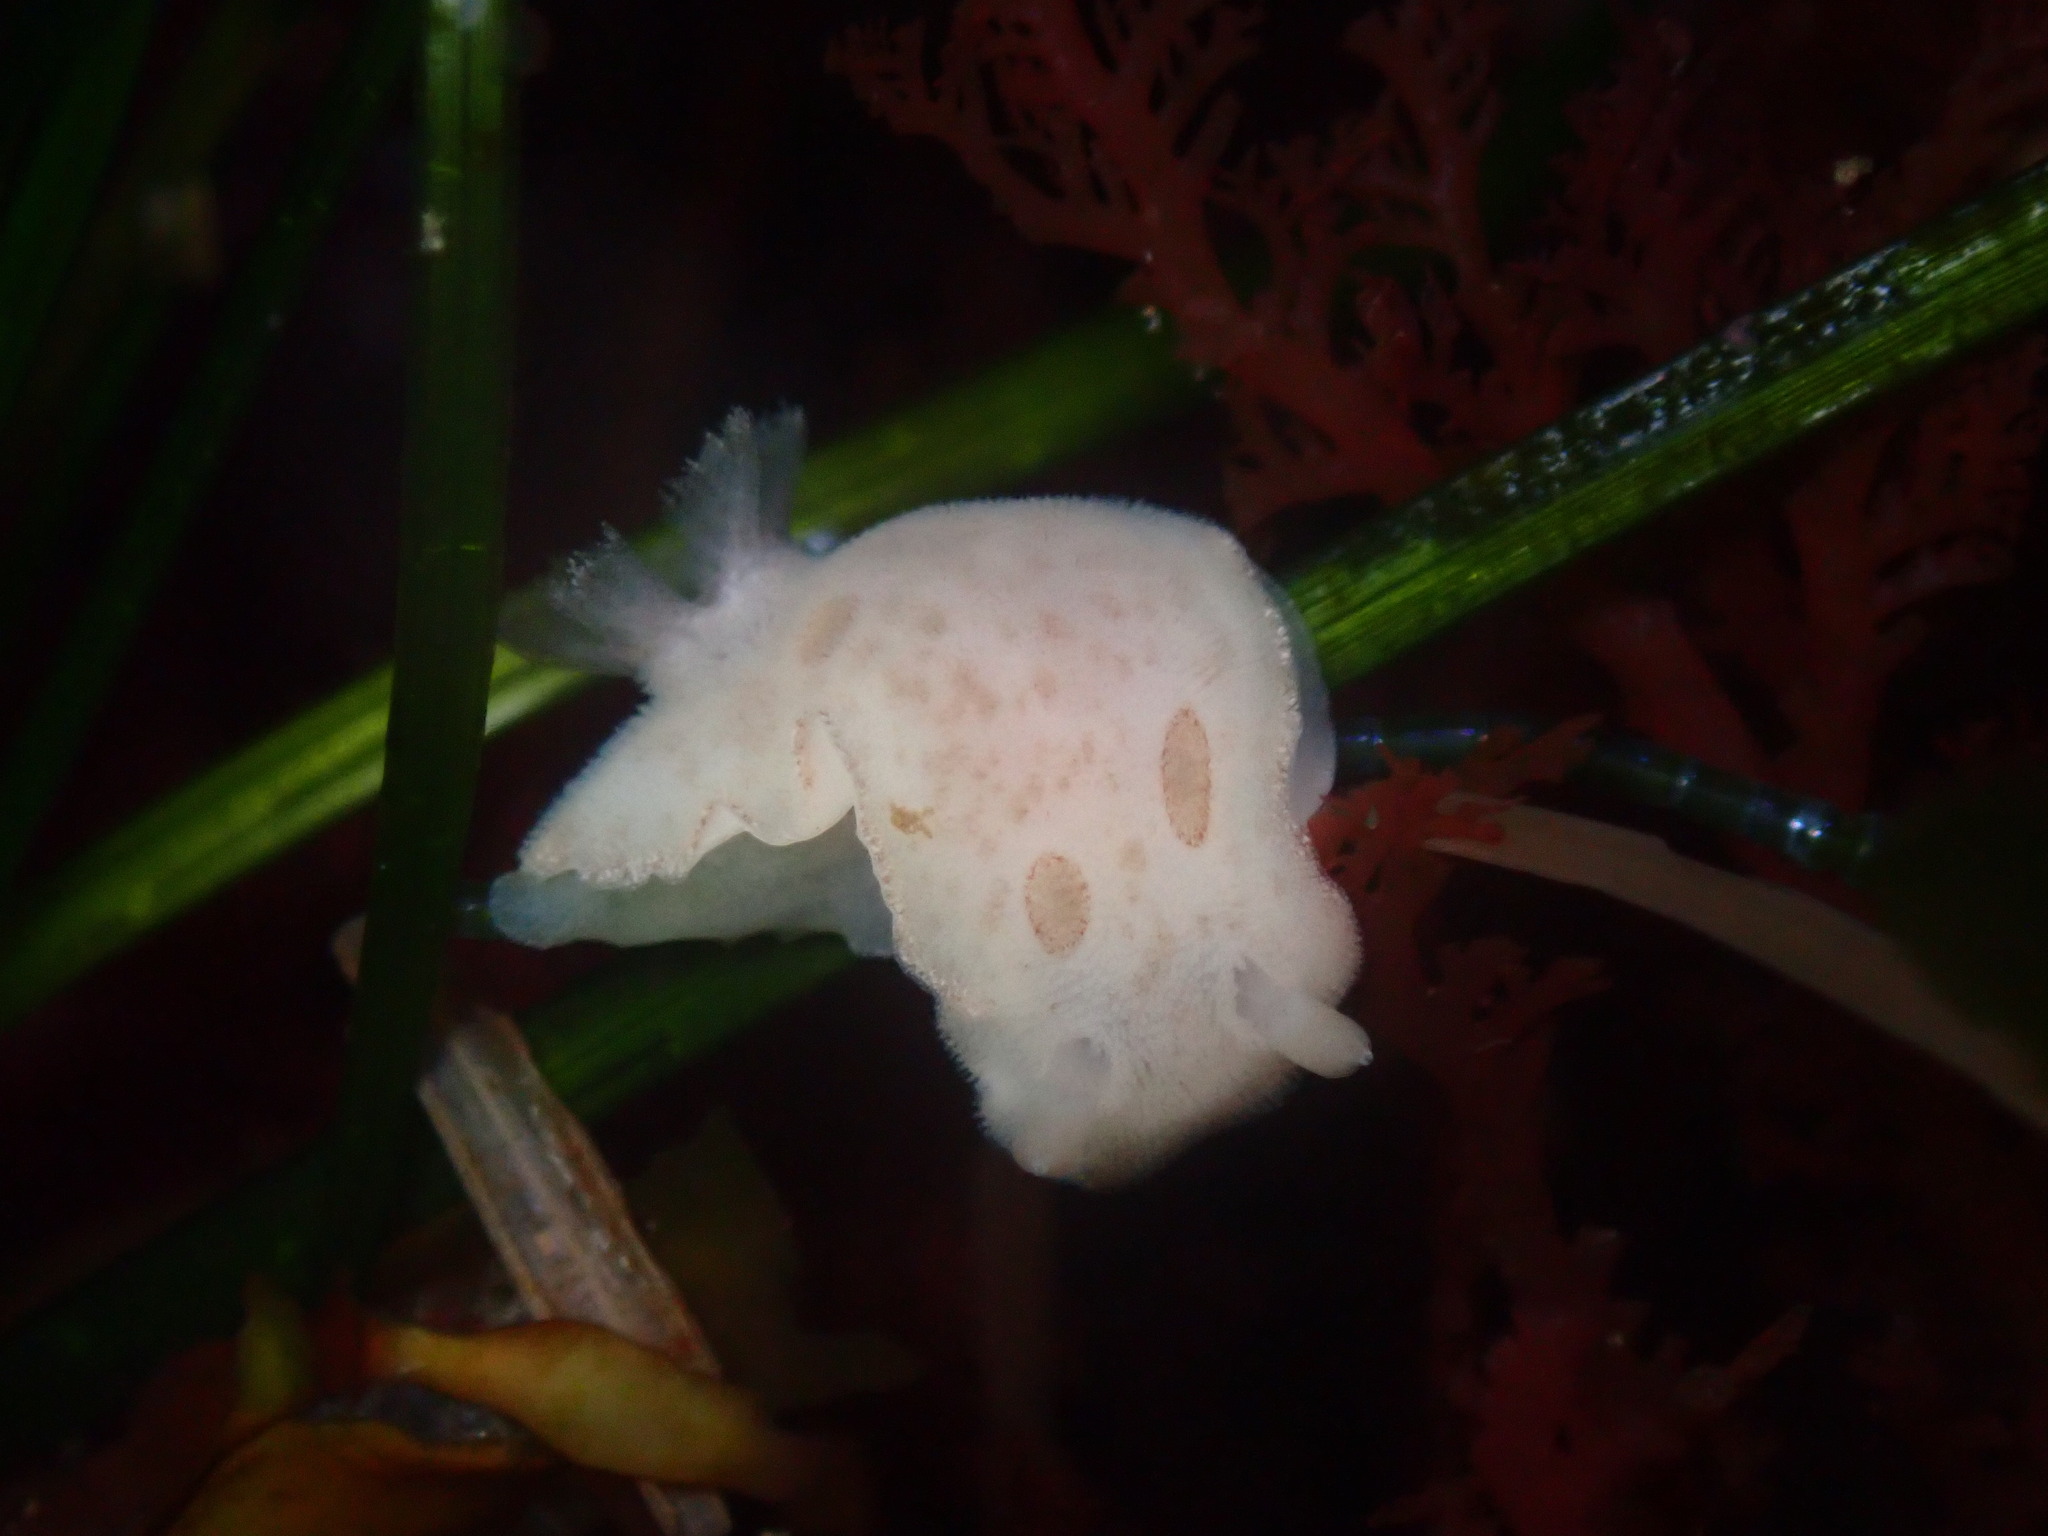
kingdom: Animalia
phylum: Mollusca
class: Gastropoda
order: Nudibranchia
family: Discodorididae
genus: Diaulula
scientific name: Diaulula sandiegensis
